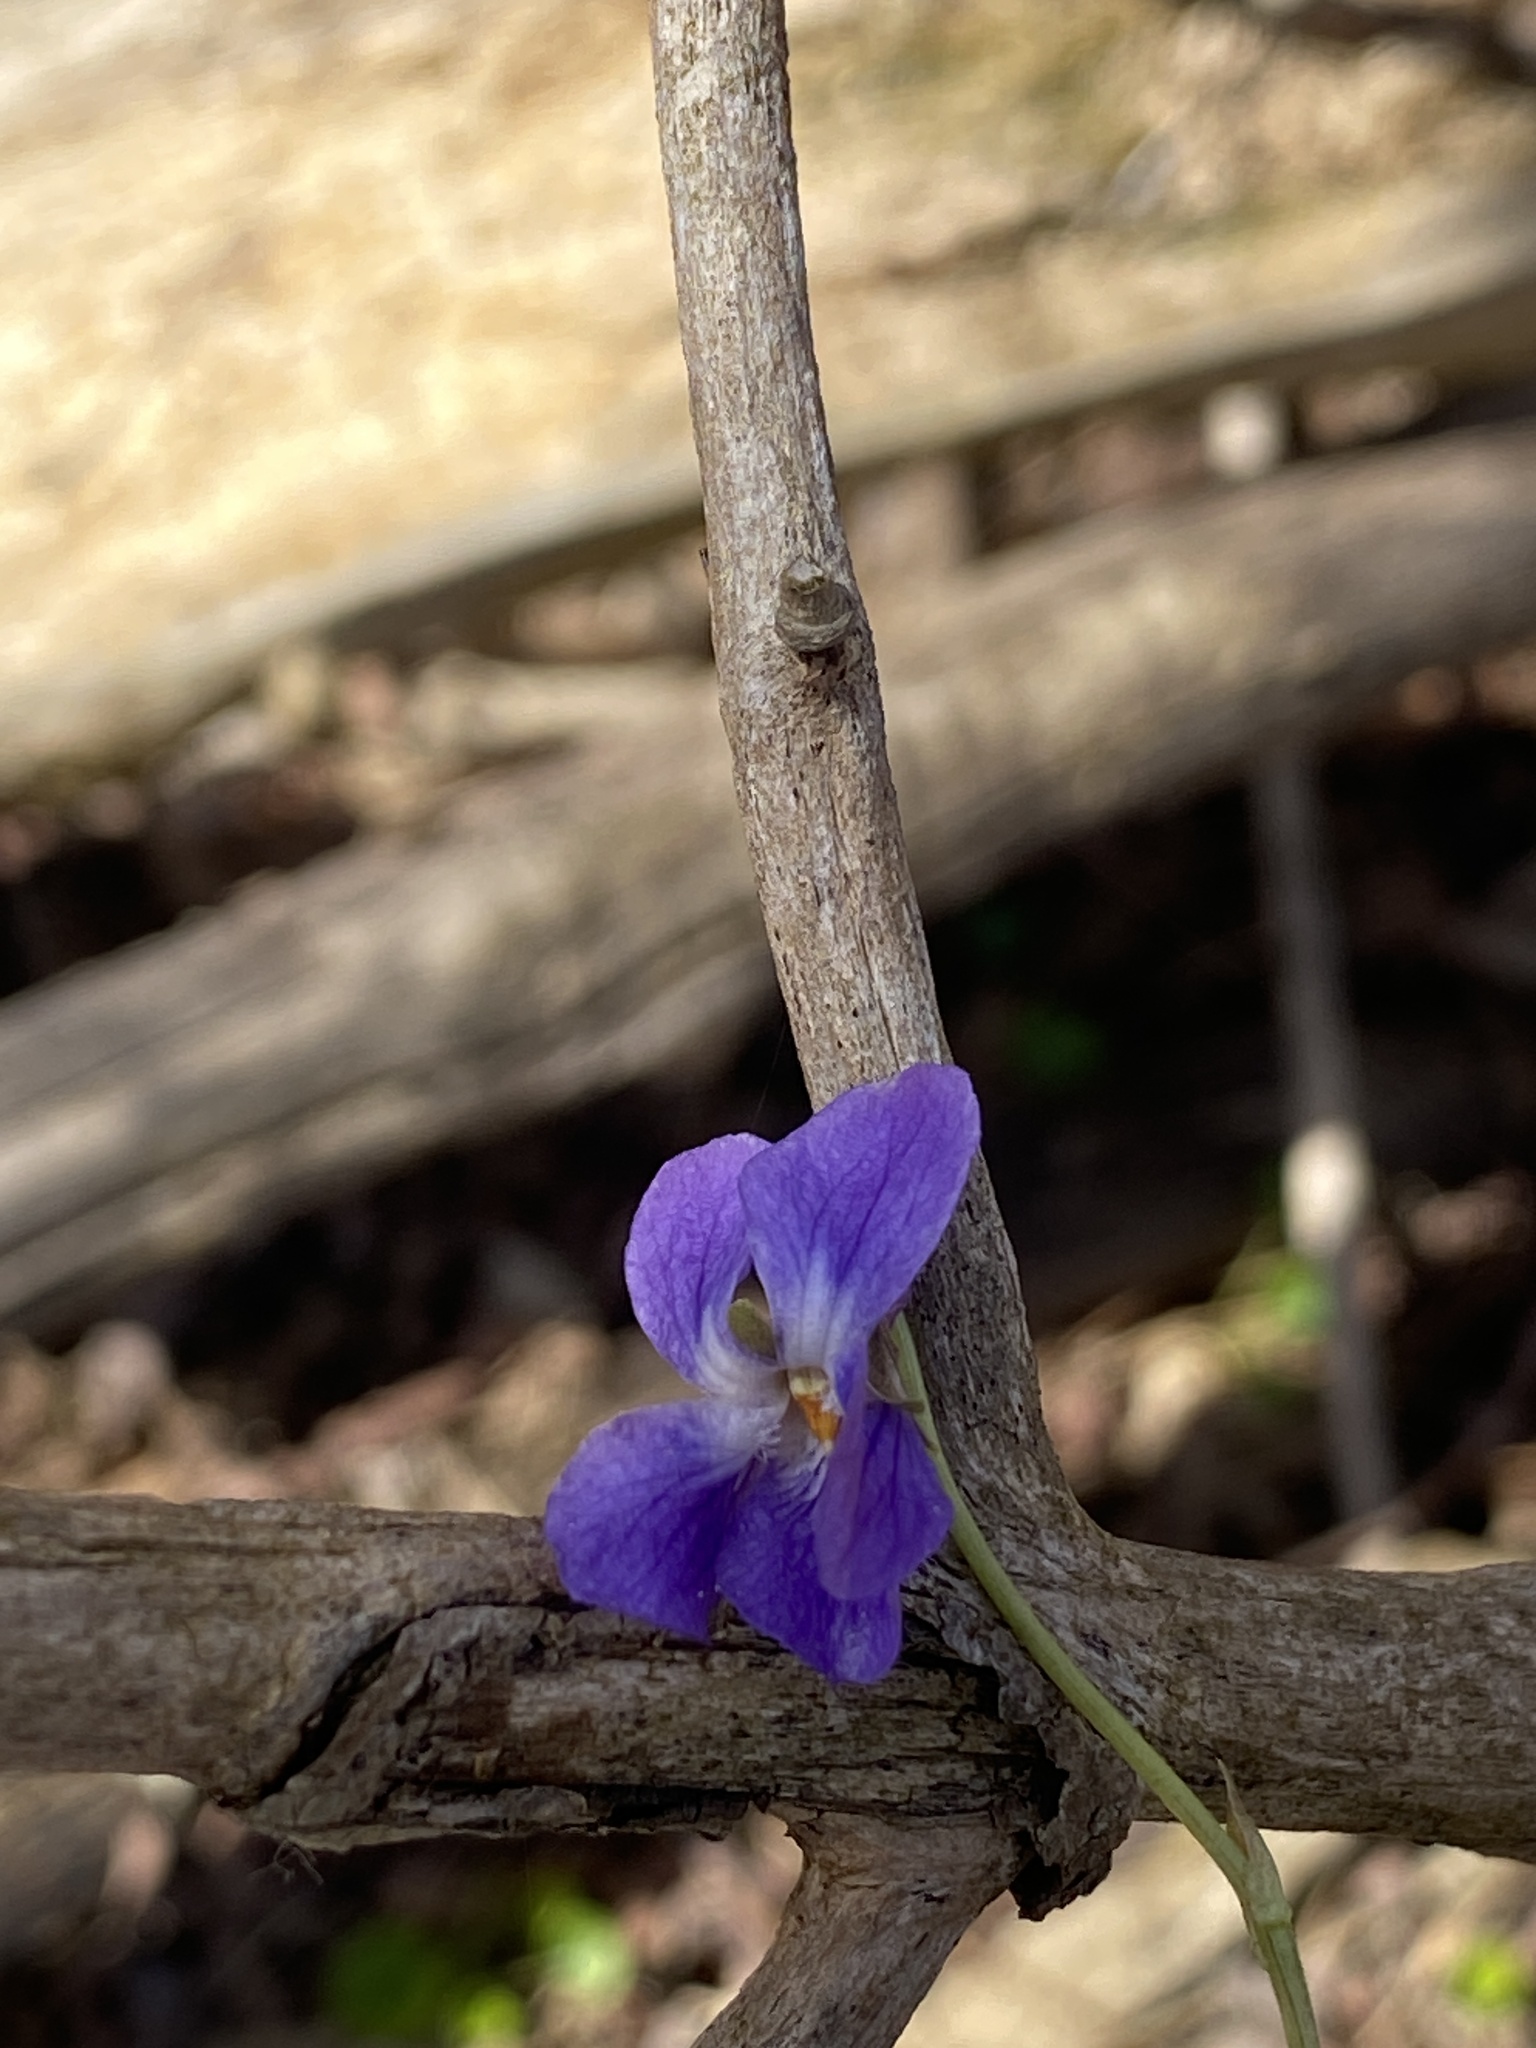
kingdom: Plantae
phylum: Tracheophyta
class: Magnoliopsida
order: Malpighiales
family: Violaceae
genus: Viola
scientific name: Viola odorata
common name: Sweet violet
